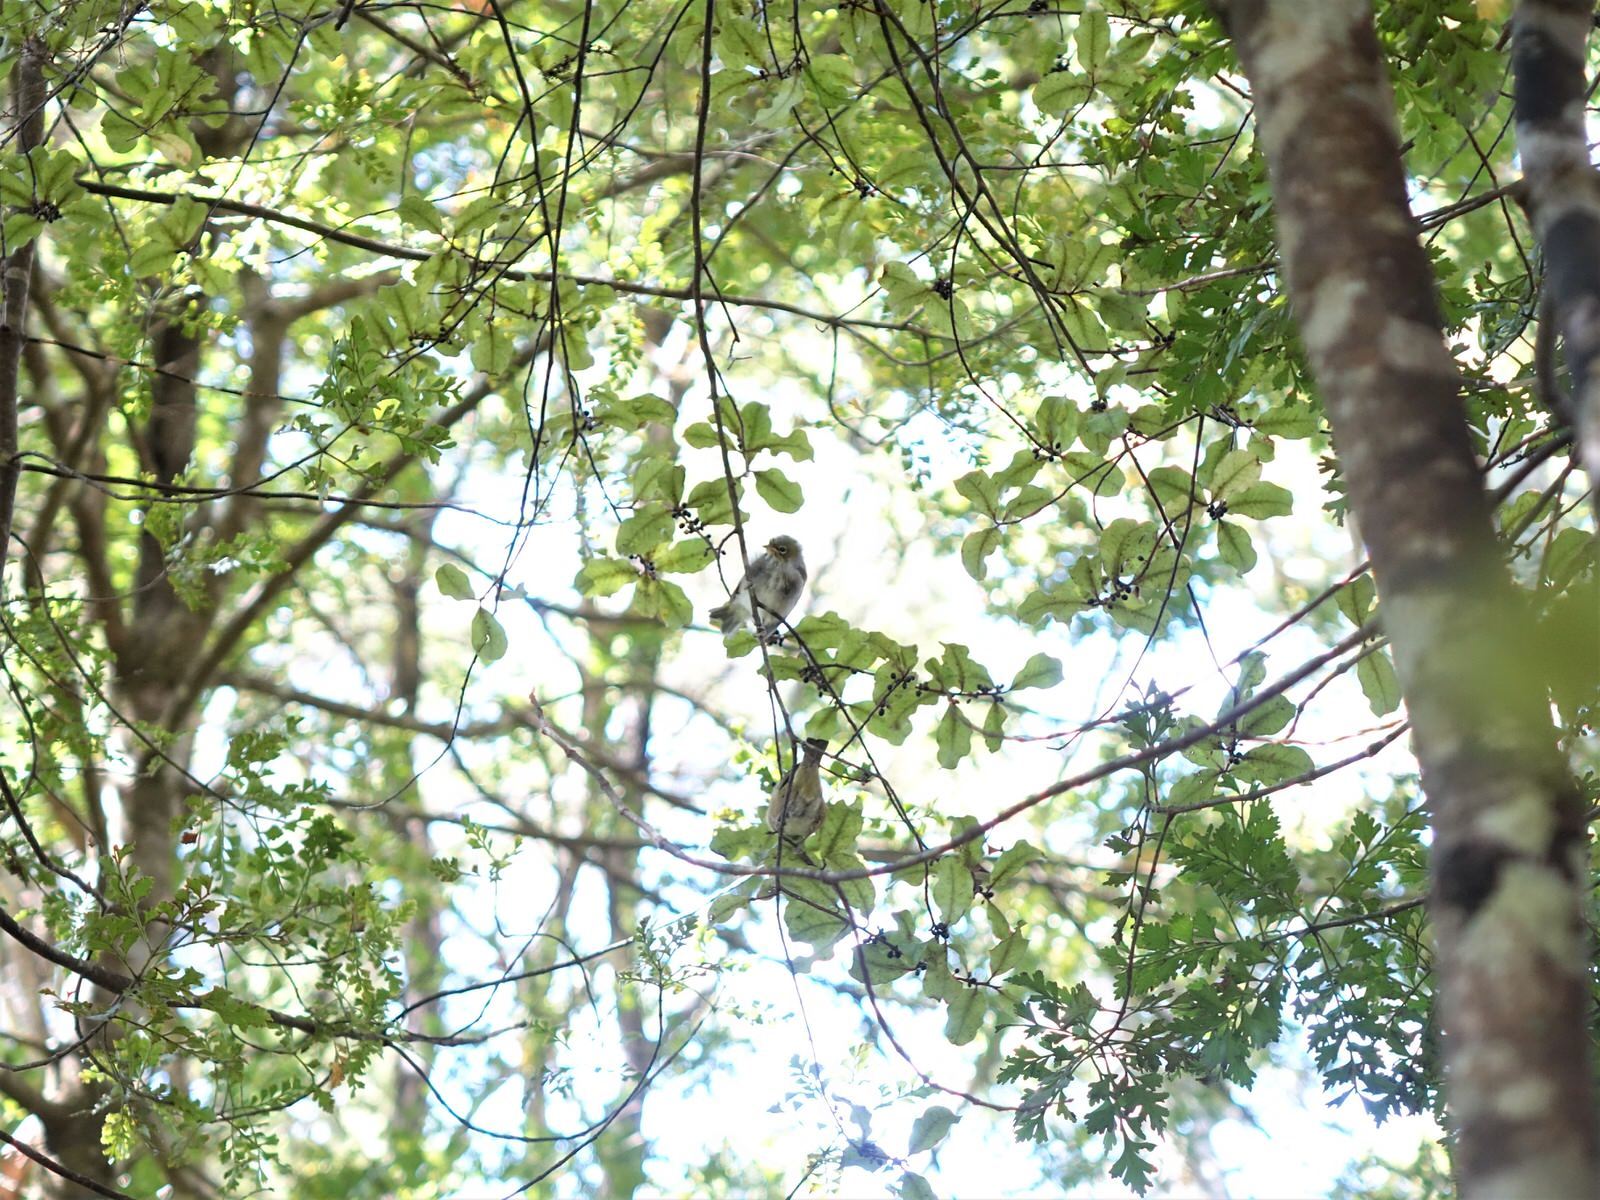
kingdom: Animalia
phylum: Chordata
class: Aves
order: Passeriformes
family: Zosteropidae
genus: Zosterops
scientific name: Zosterops lateralis
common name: Silvereye
